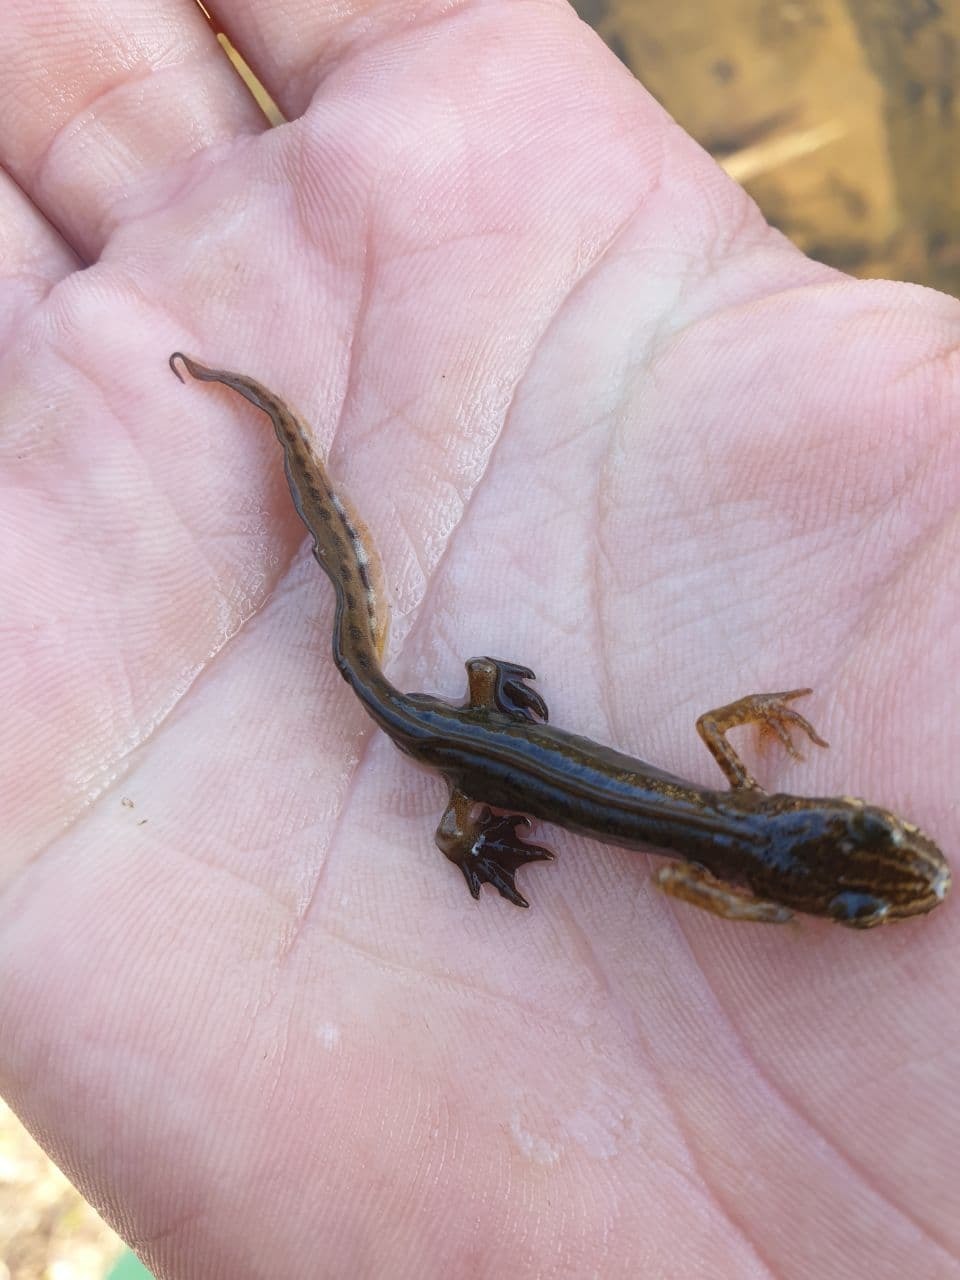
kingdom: Animalia
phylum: Chordata
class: Amphibia
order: Caudata
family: Salamandridae
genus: Lissotriton
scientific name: Lissotriton helveticus
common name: Palmate newt
